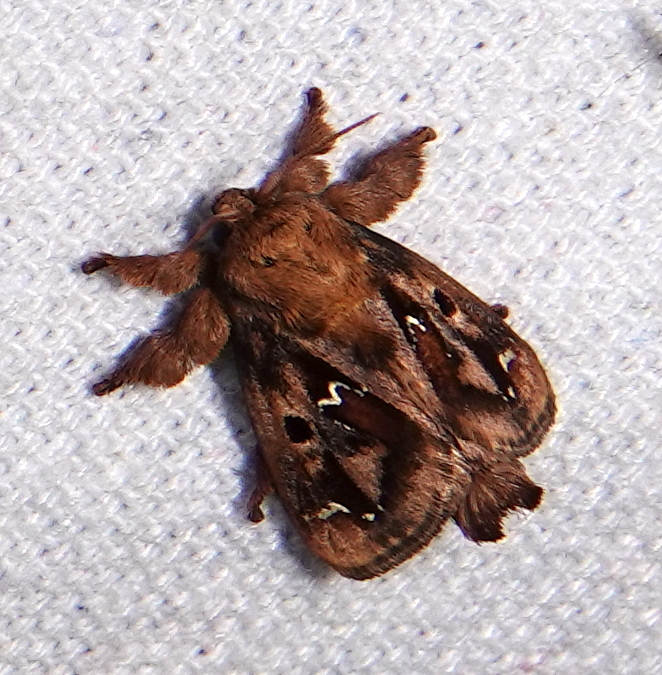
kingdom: Animalia
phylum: Arthropoda
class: Insecta
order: Lepidoptera
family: Limacodidae
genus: Euclea
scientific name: Euclea buscki
